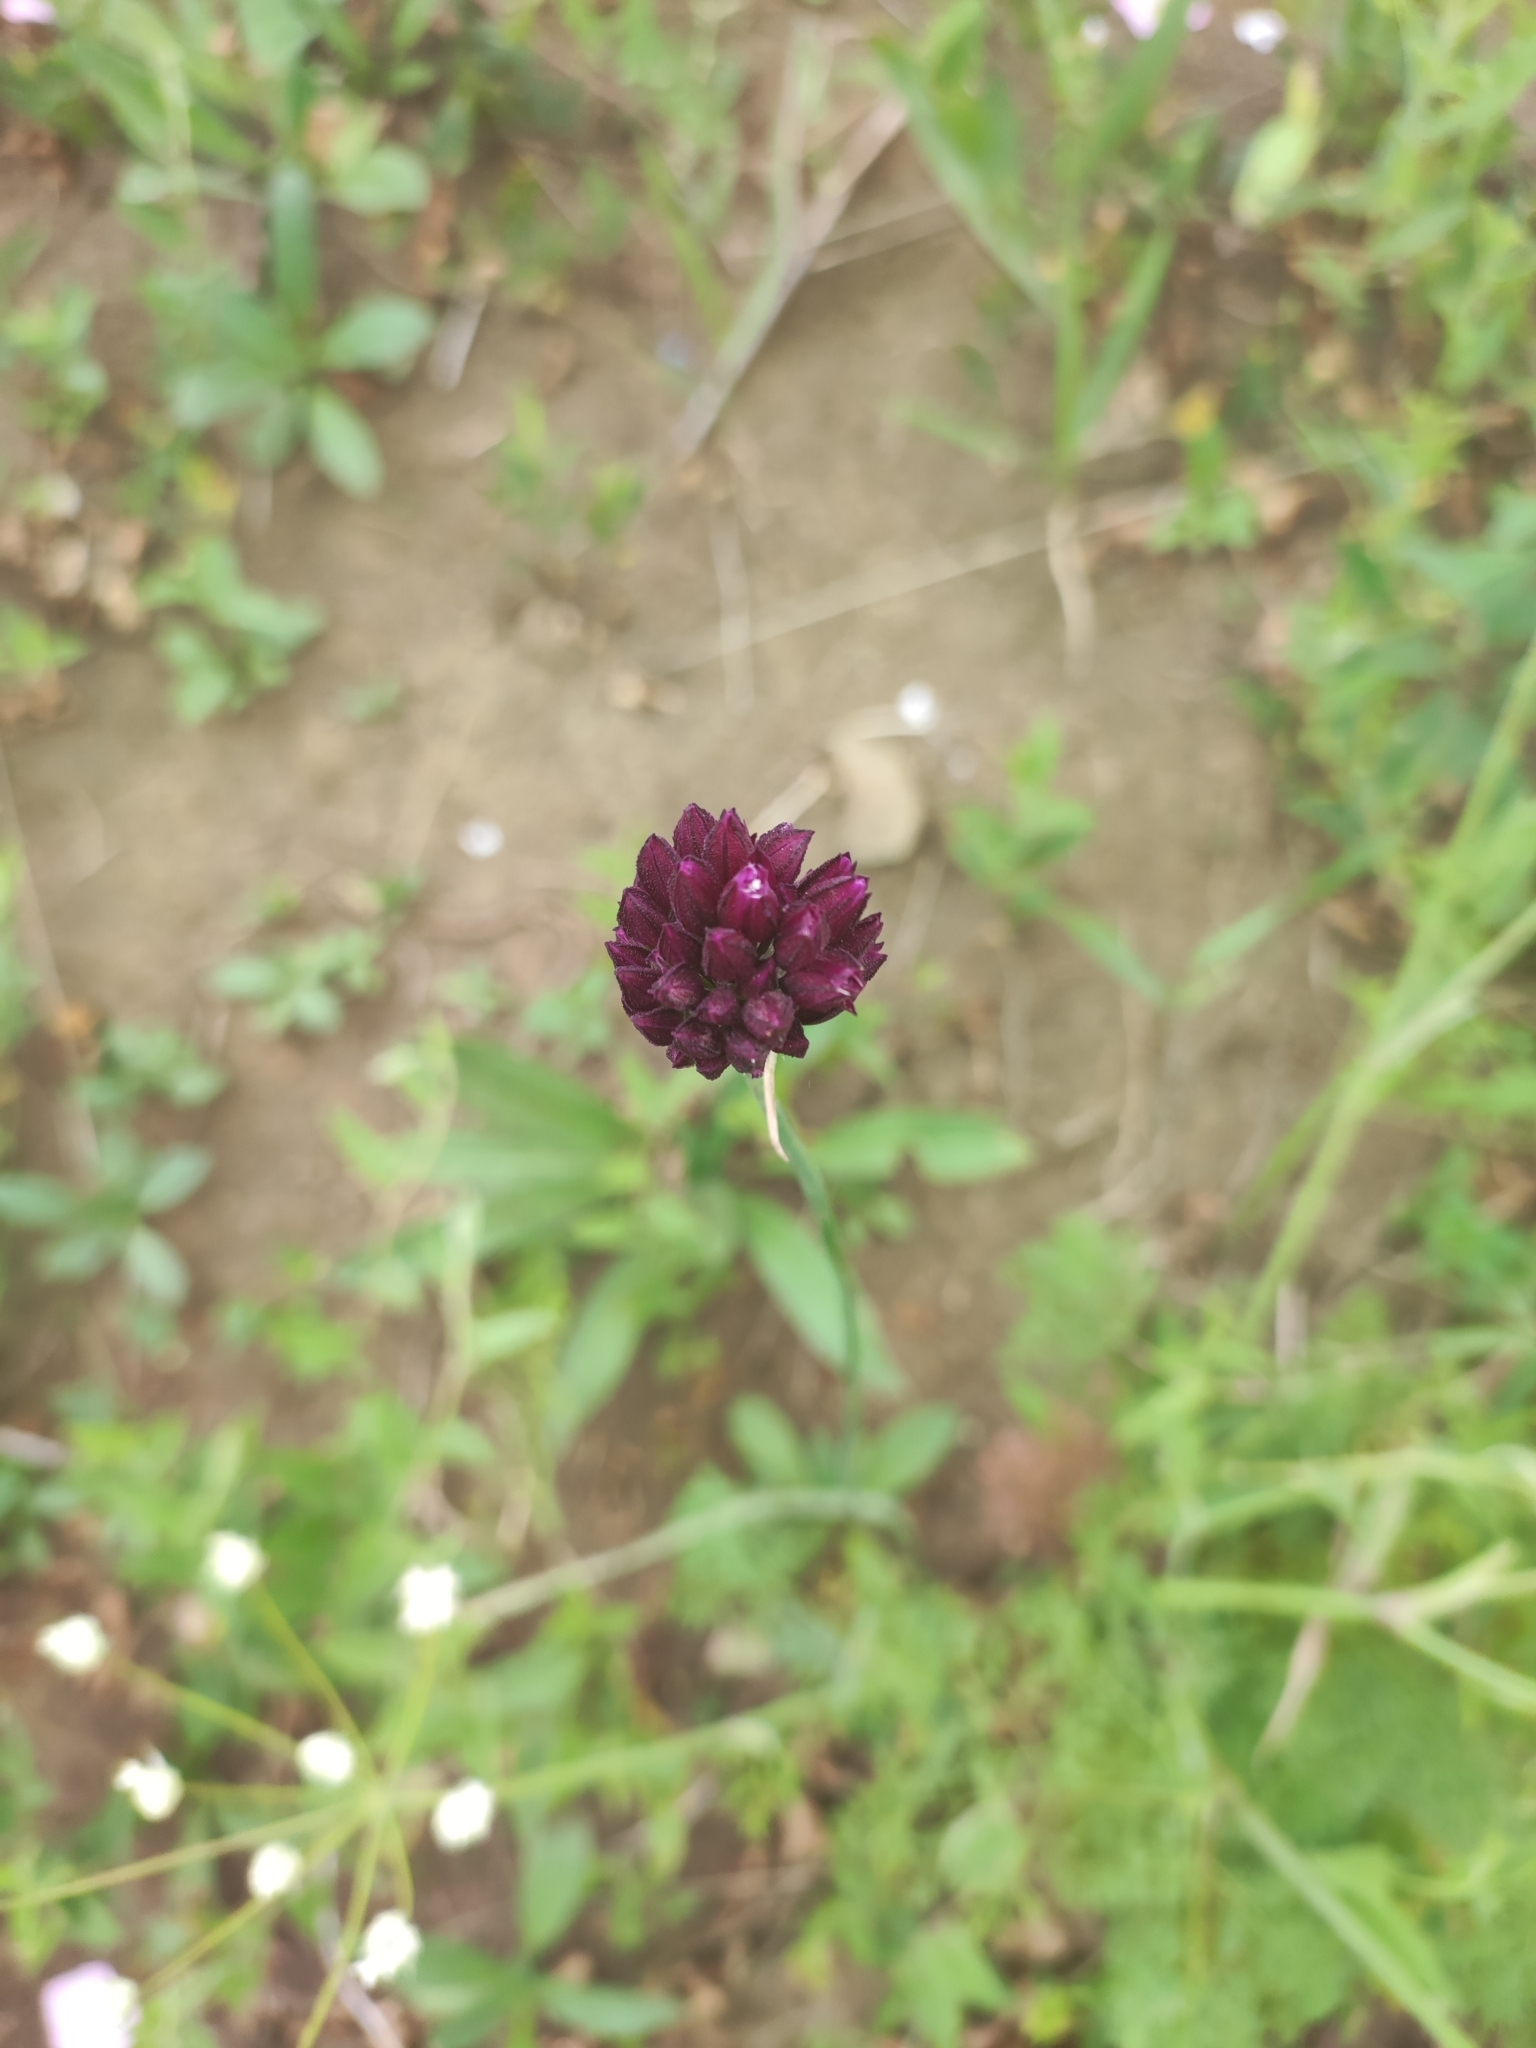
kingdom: Plantae
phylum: Tracheophyta
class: Liliopsida
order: Asparagales
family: Amaryllidaceae
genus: Allium
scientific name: Allium rotundum
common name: Sand leek
